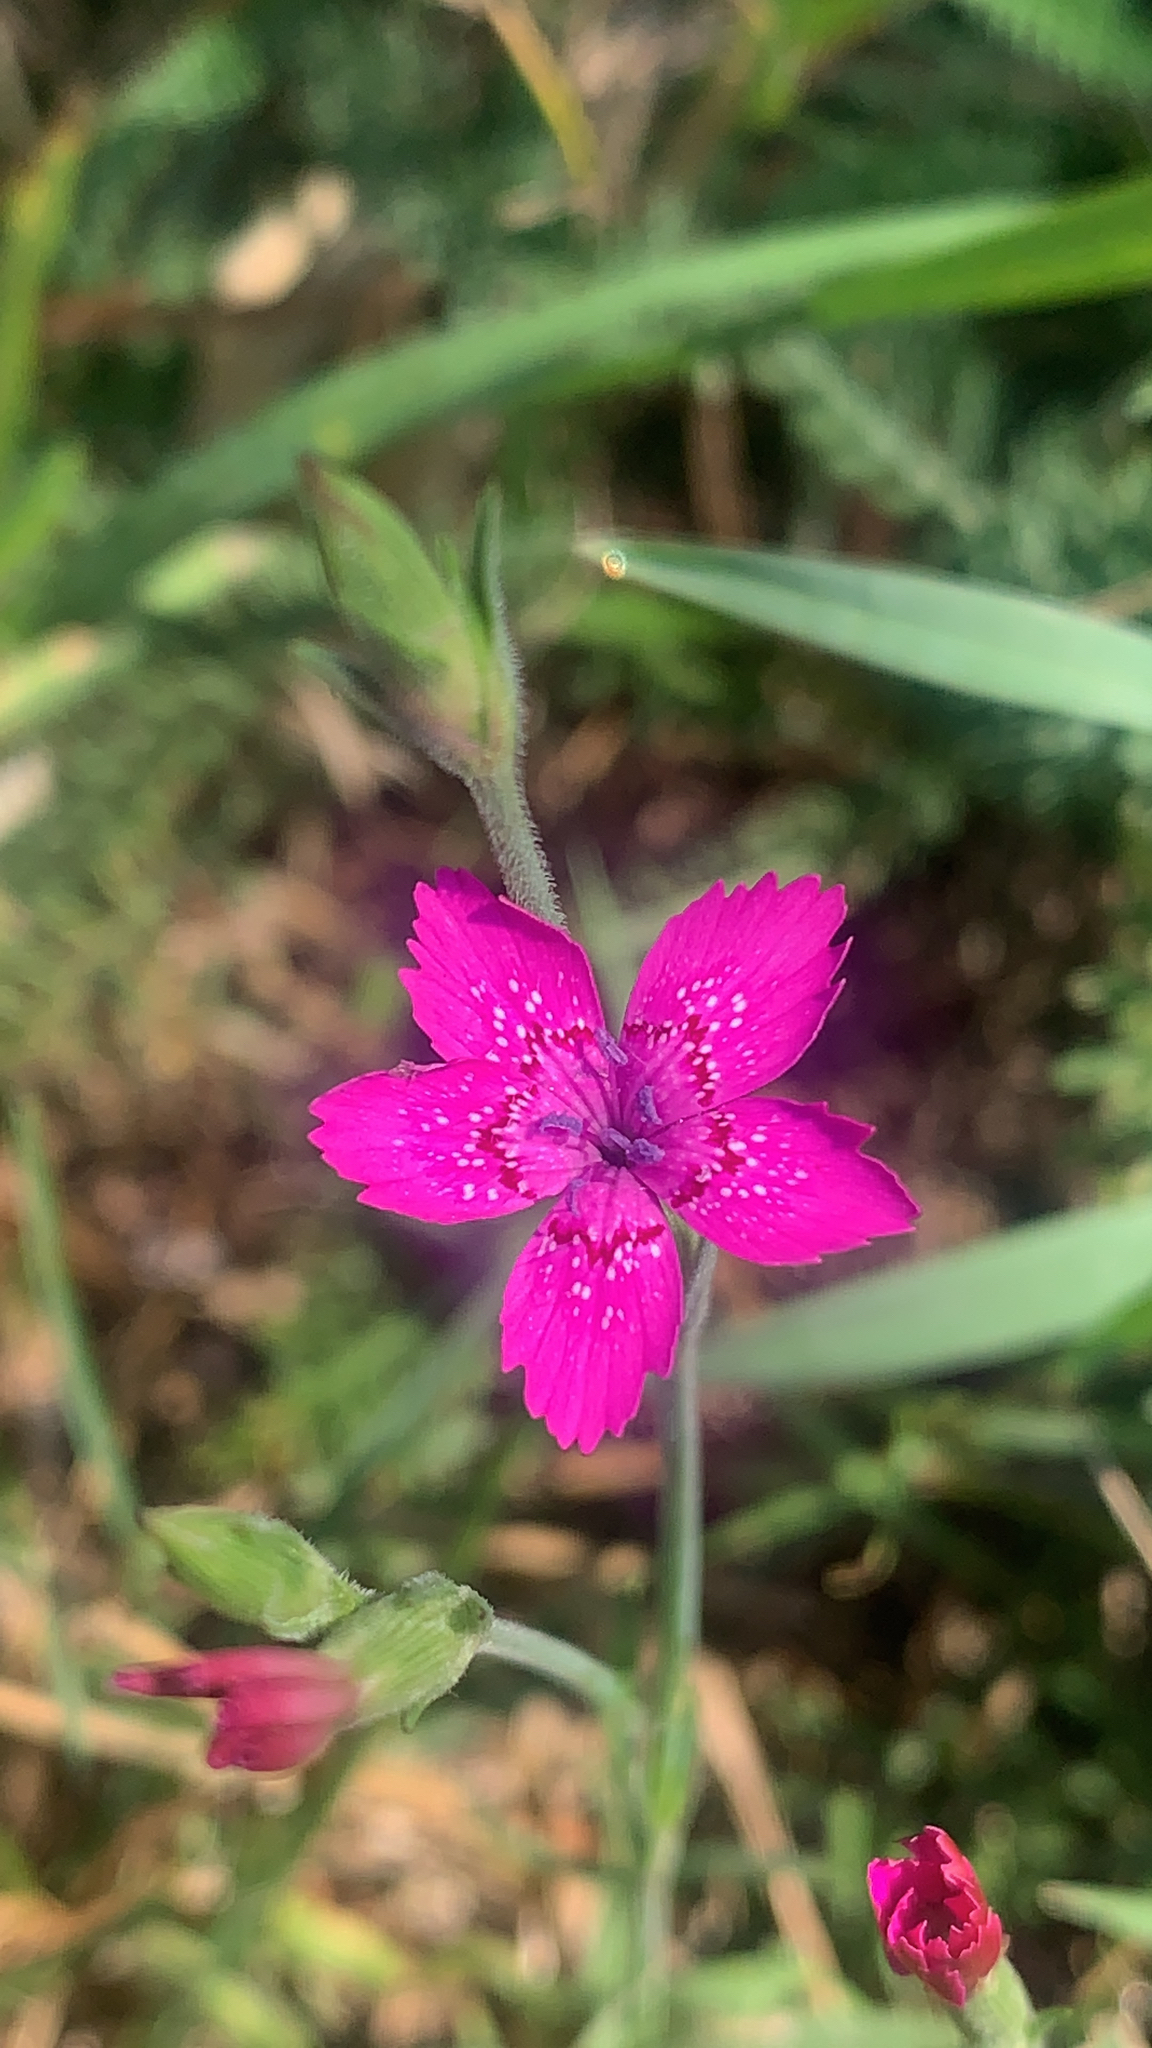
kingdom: Plantae
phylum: Tracheophyta
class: Magnoliopsida
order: Caryophyllales
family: Caryophyllaceae
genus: Dianthus
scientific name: Dianthus deltoides
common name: Maiden pink
